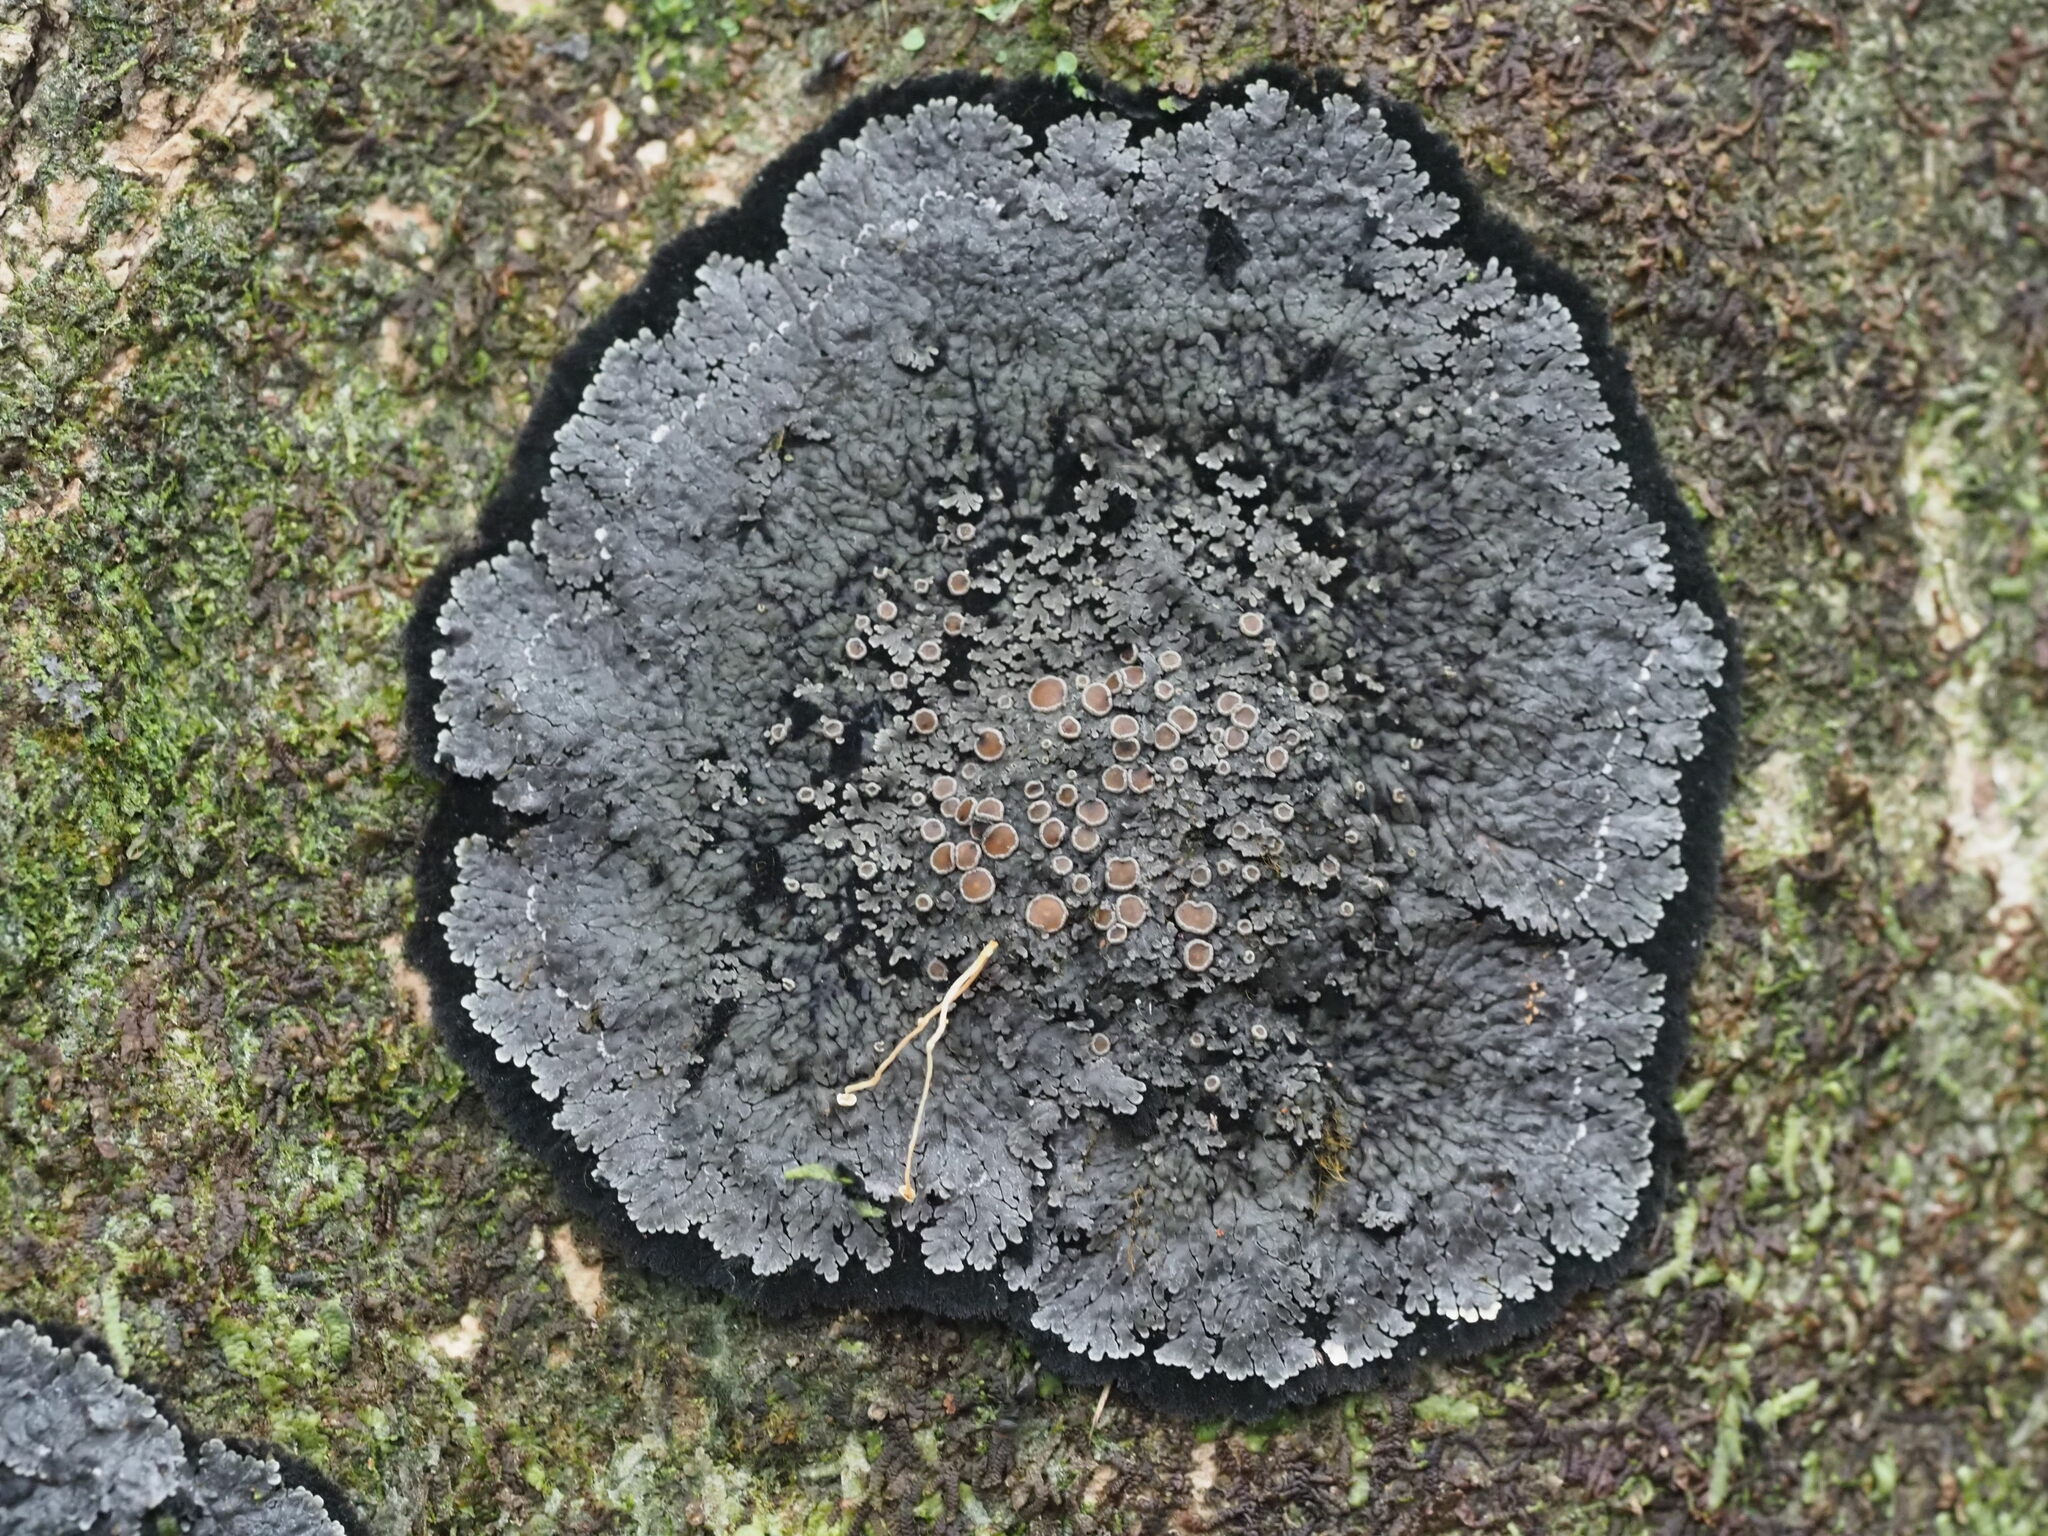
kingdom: Fungi
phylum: Ascomycota
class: Lecanoromycetes
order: Peltigerales
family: Pannariaceae
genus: Lepidocollema
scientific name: Lepidocollema marianum
